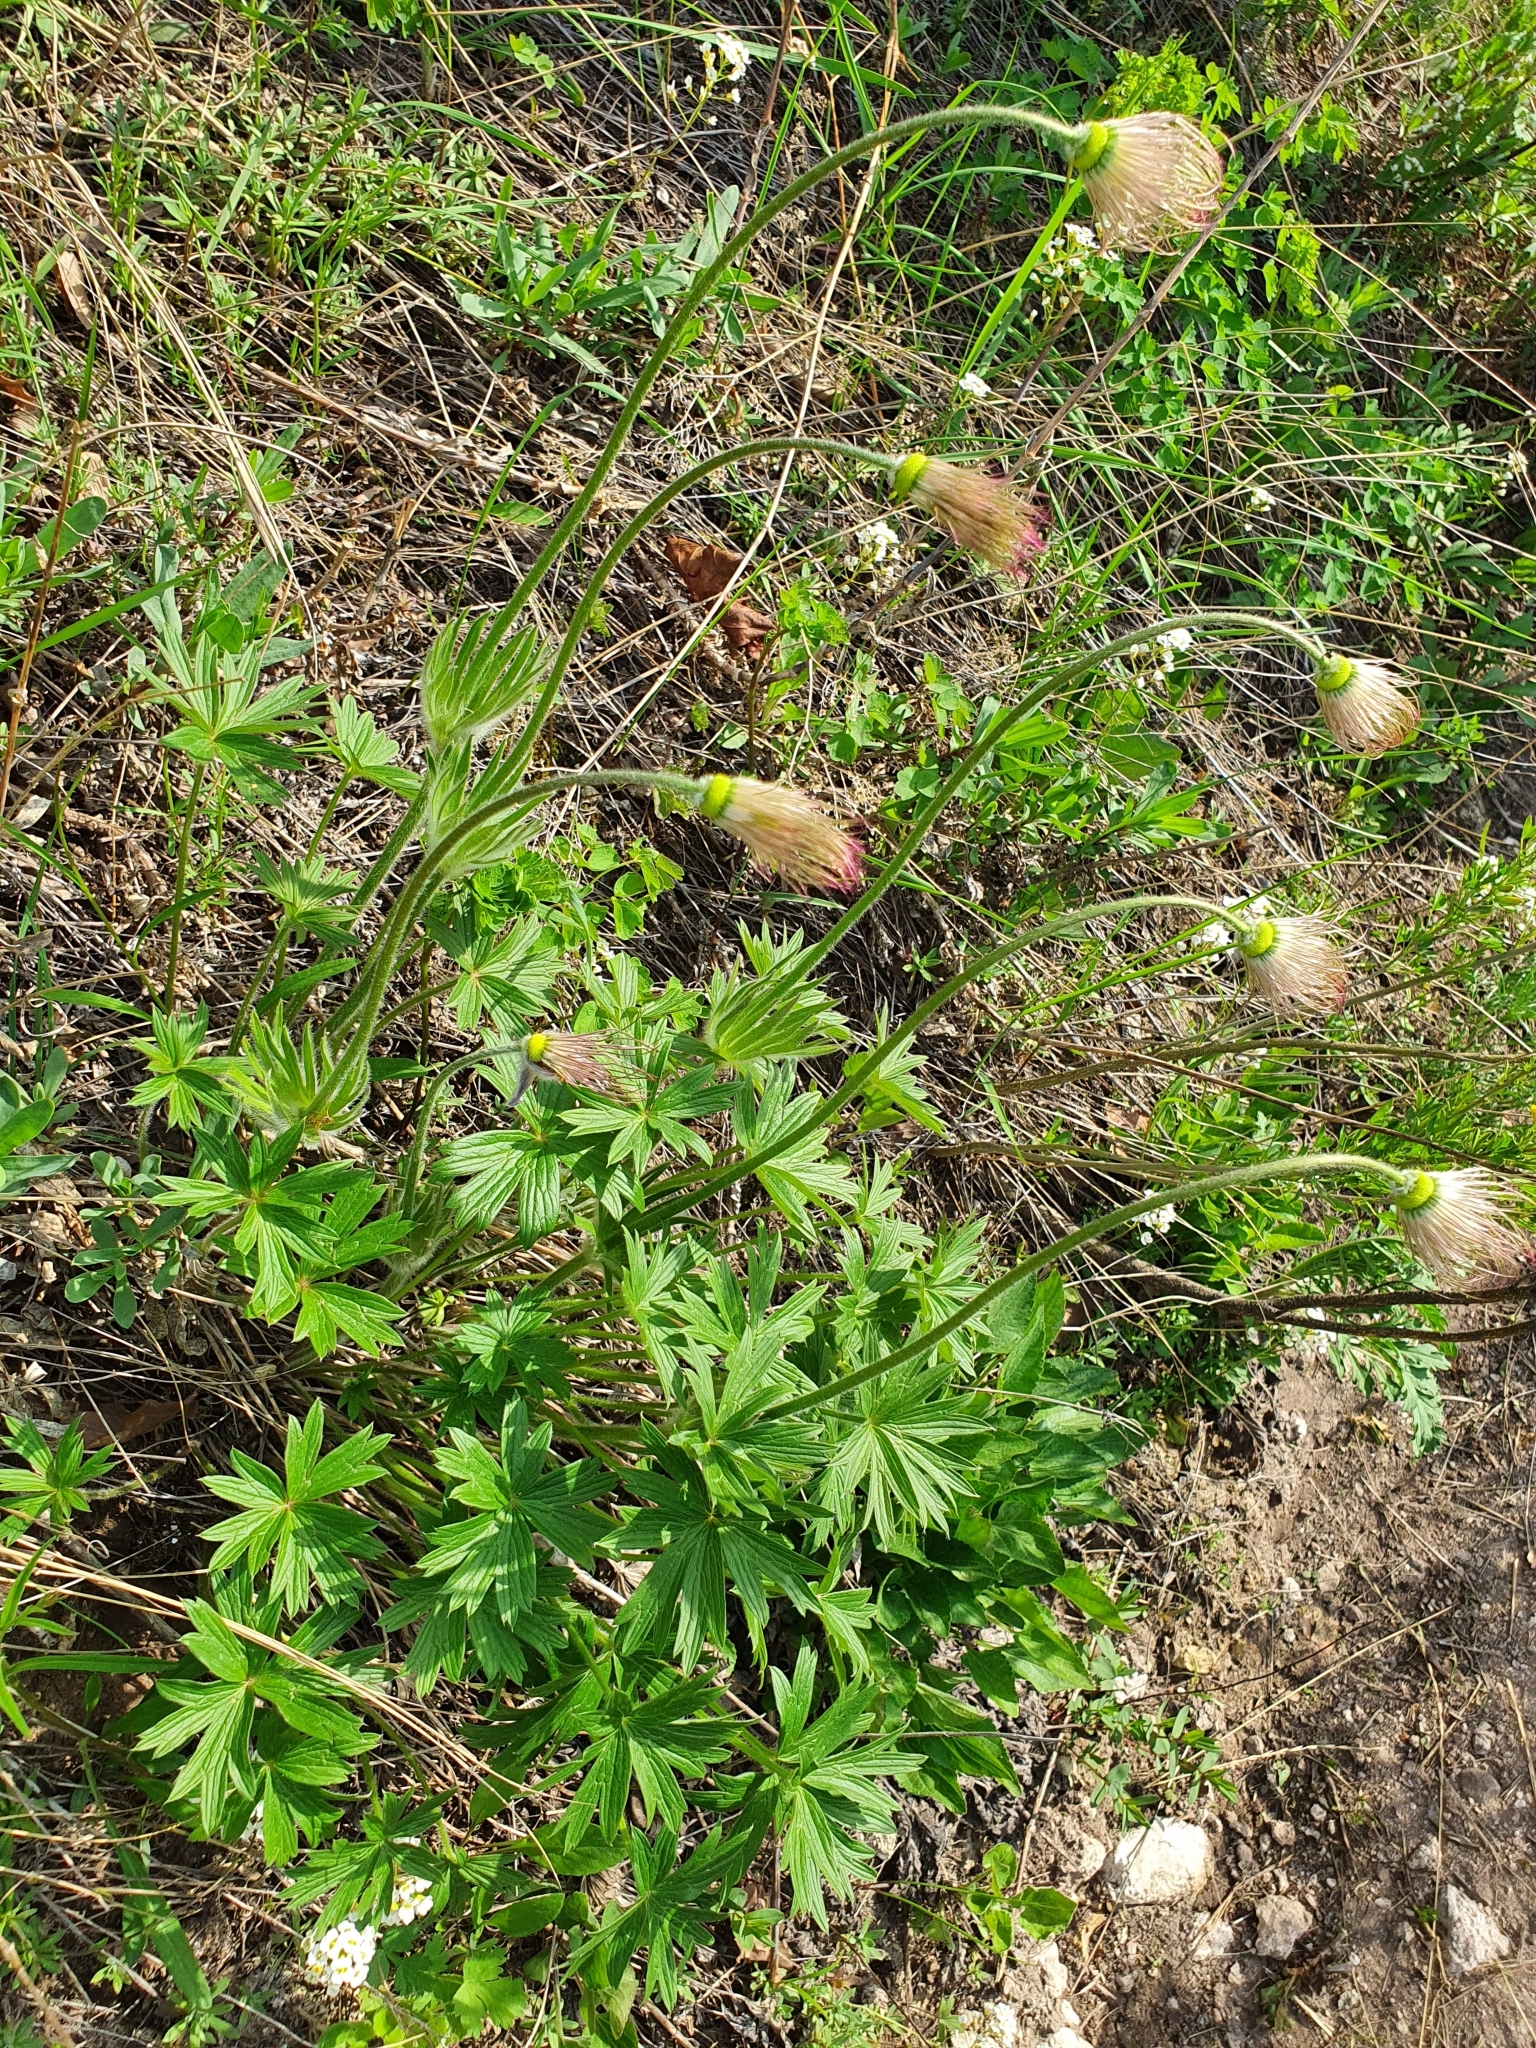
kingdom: Plantae
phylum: Tracheophyta
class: Magnoliopsida
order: Ranunculales
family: Ranunculaceae
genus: Pulsatilla
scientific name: Pulsatilla patens
